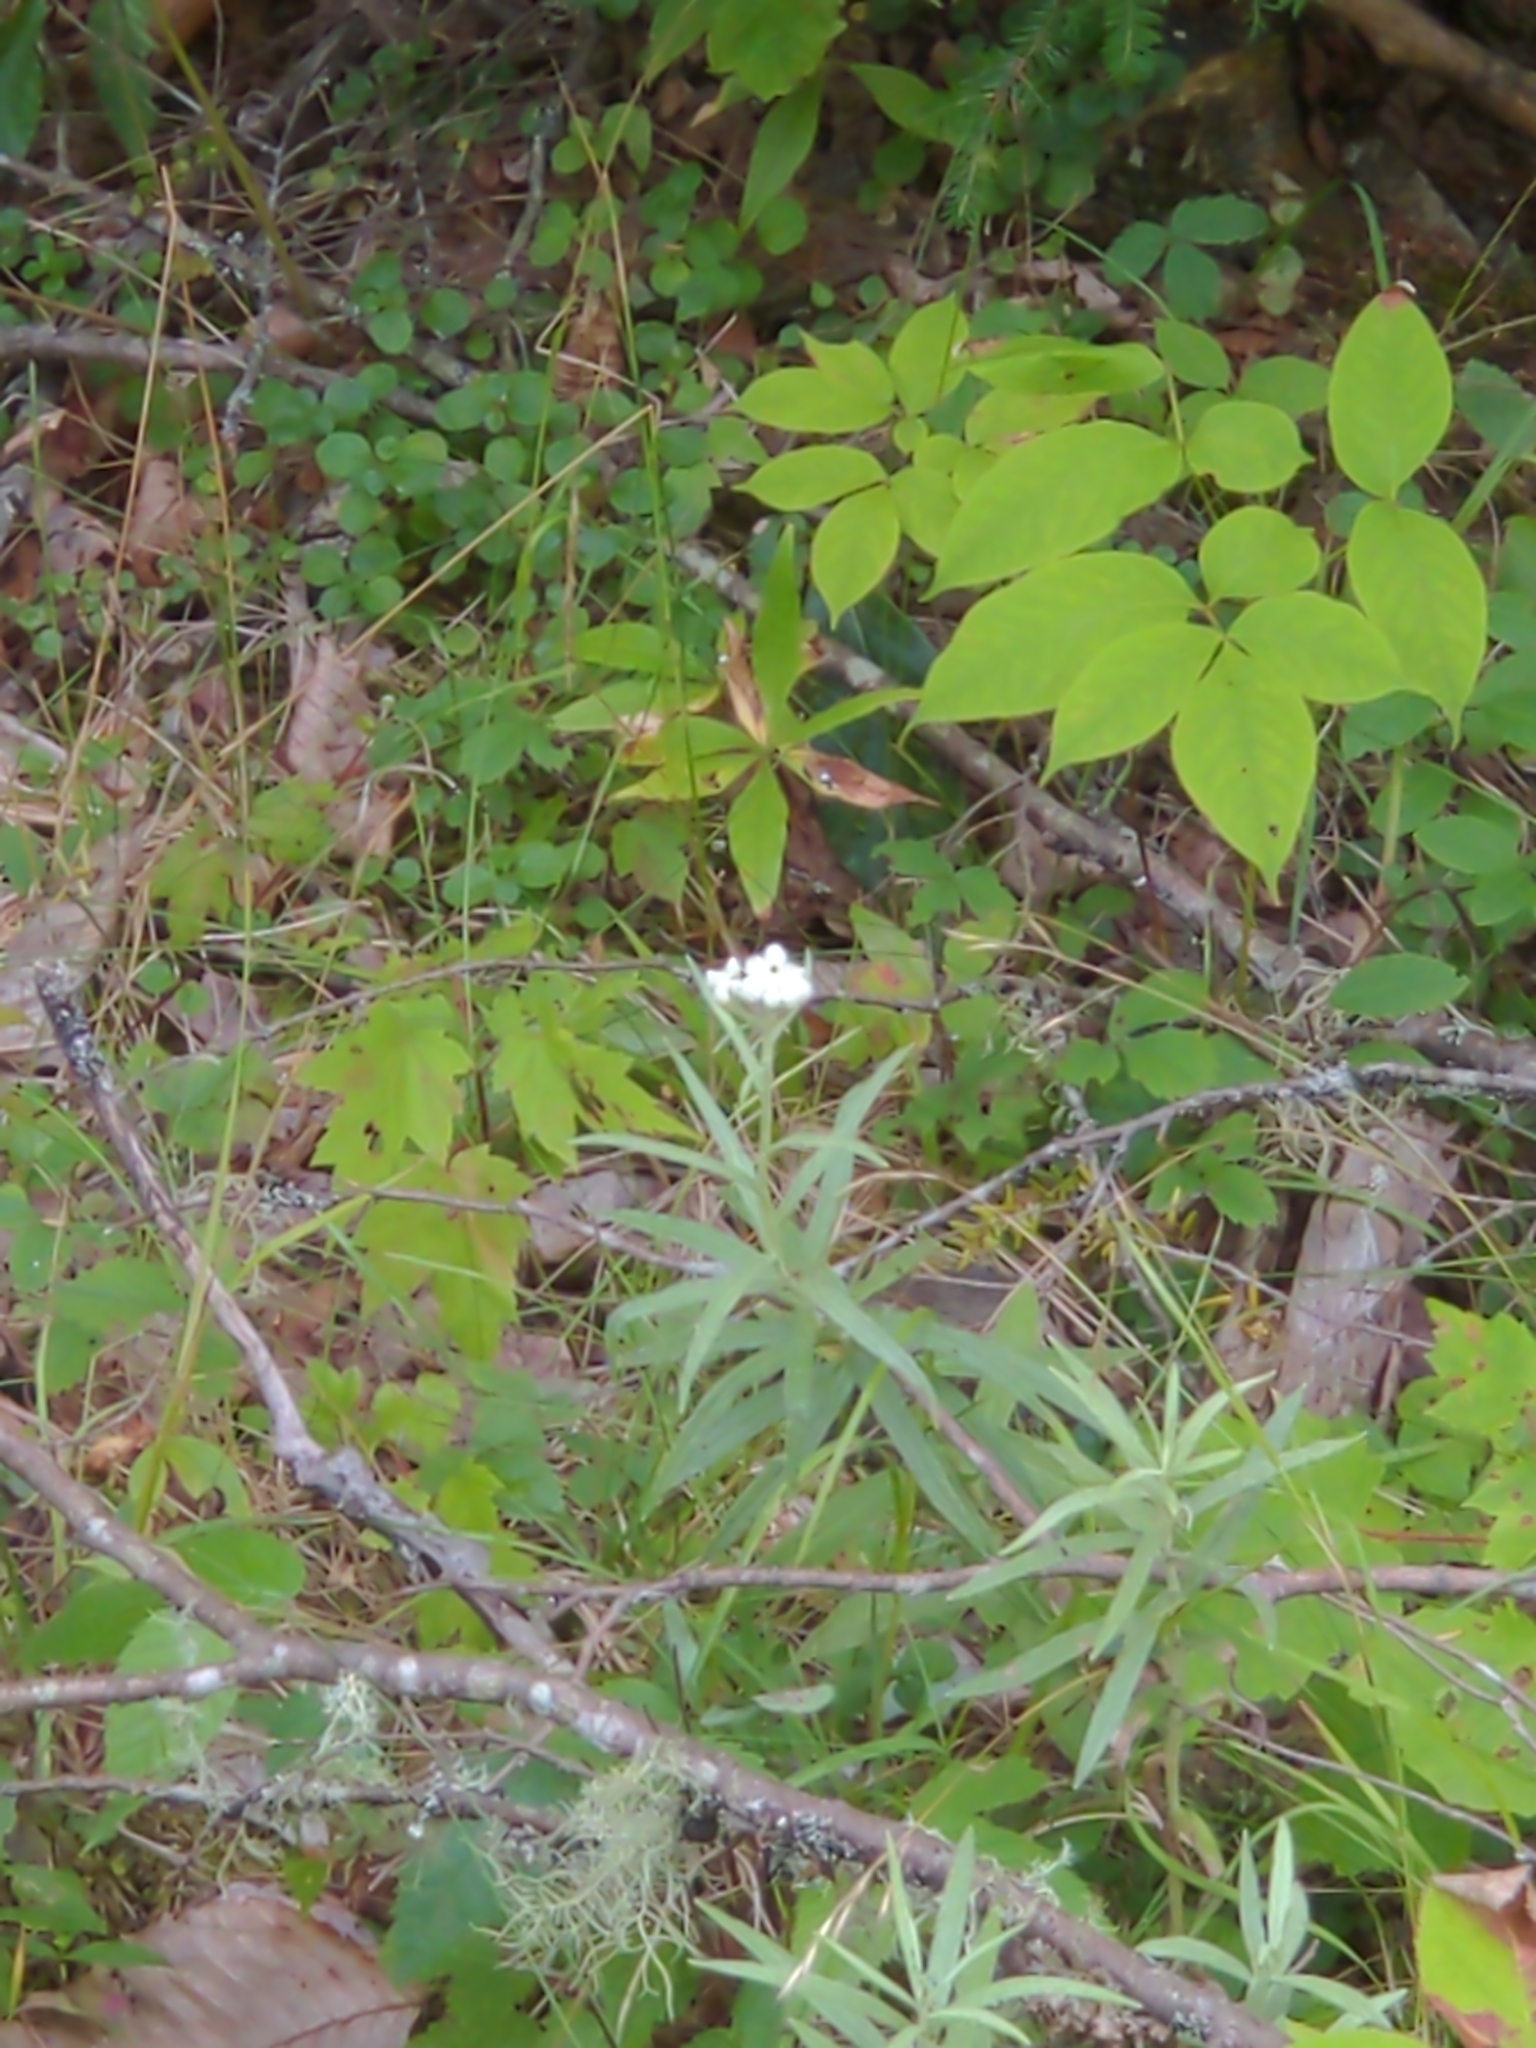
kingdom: Plantae
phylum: Tracheophyta
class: Magnoliopsida
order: Asterales
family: Asteraceae
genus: Anaphalis
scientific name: Anaphalis margaritacea
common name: Pearly everlasting
